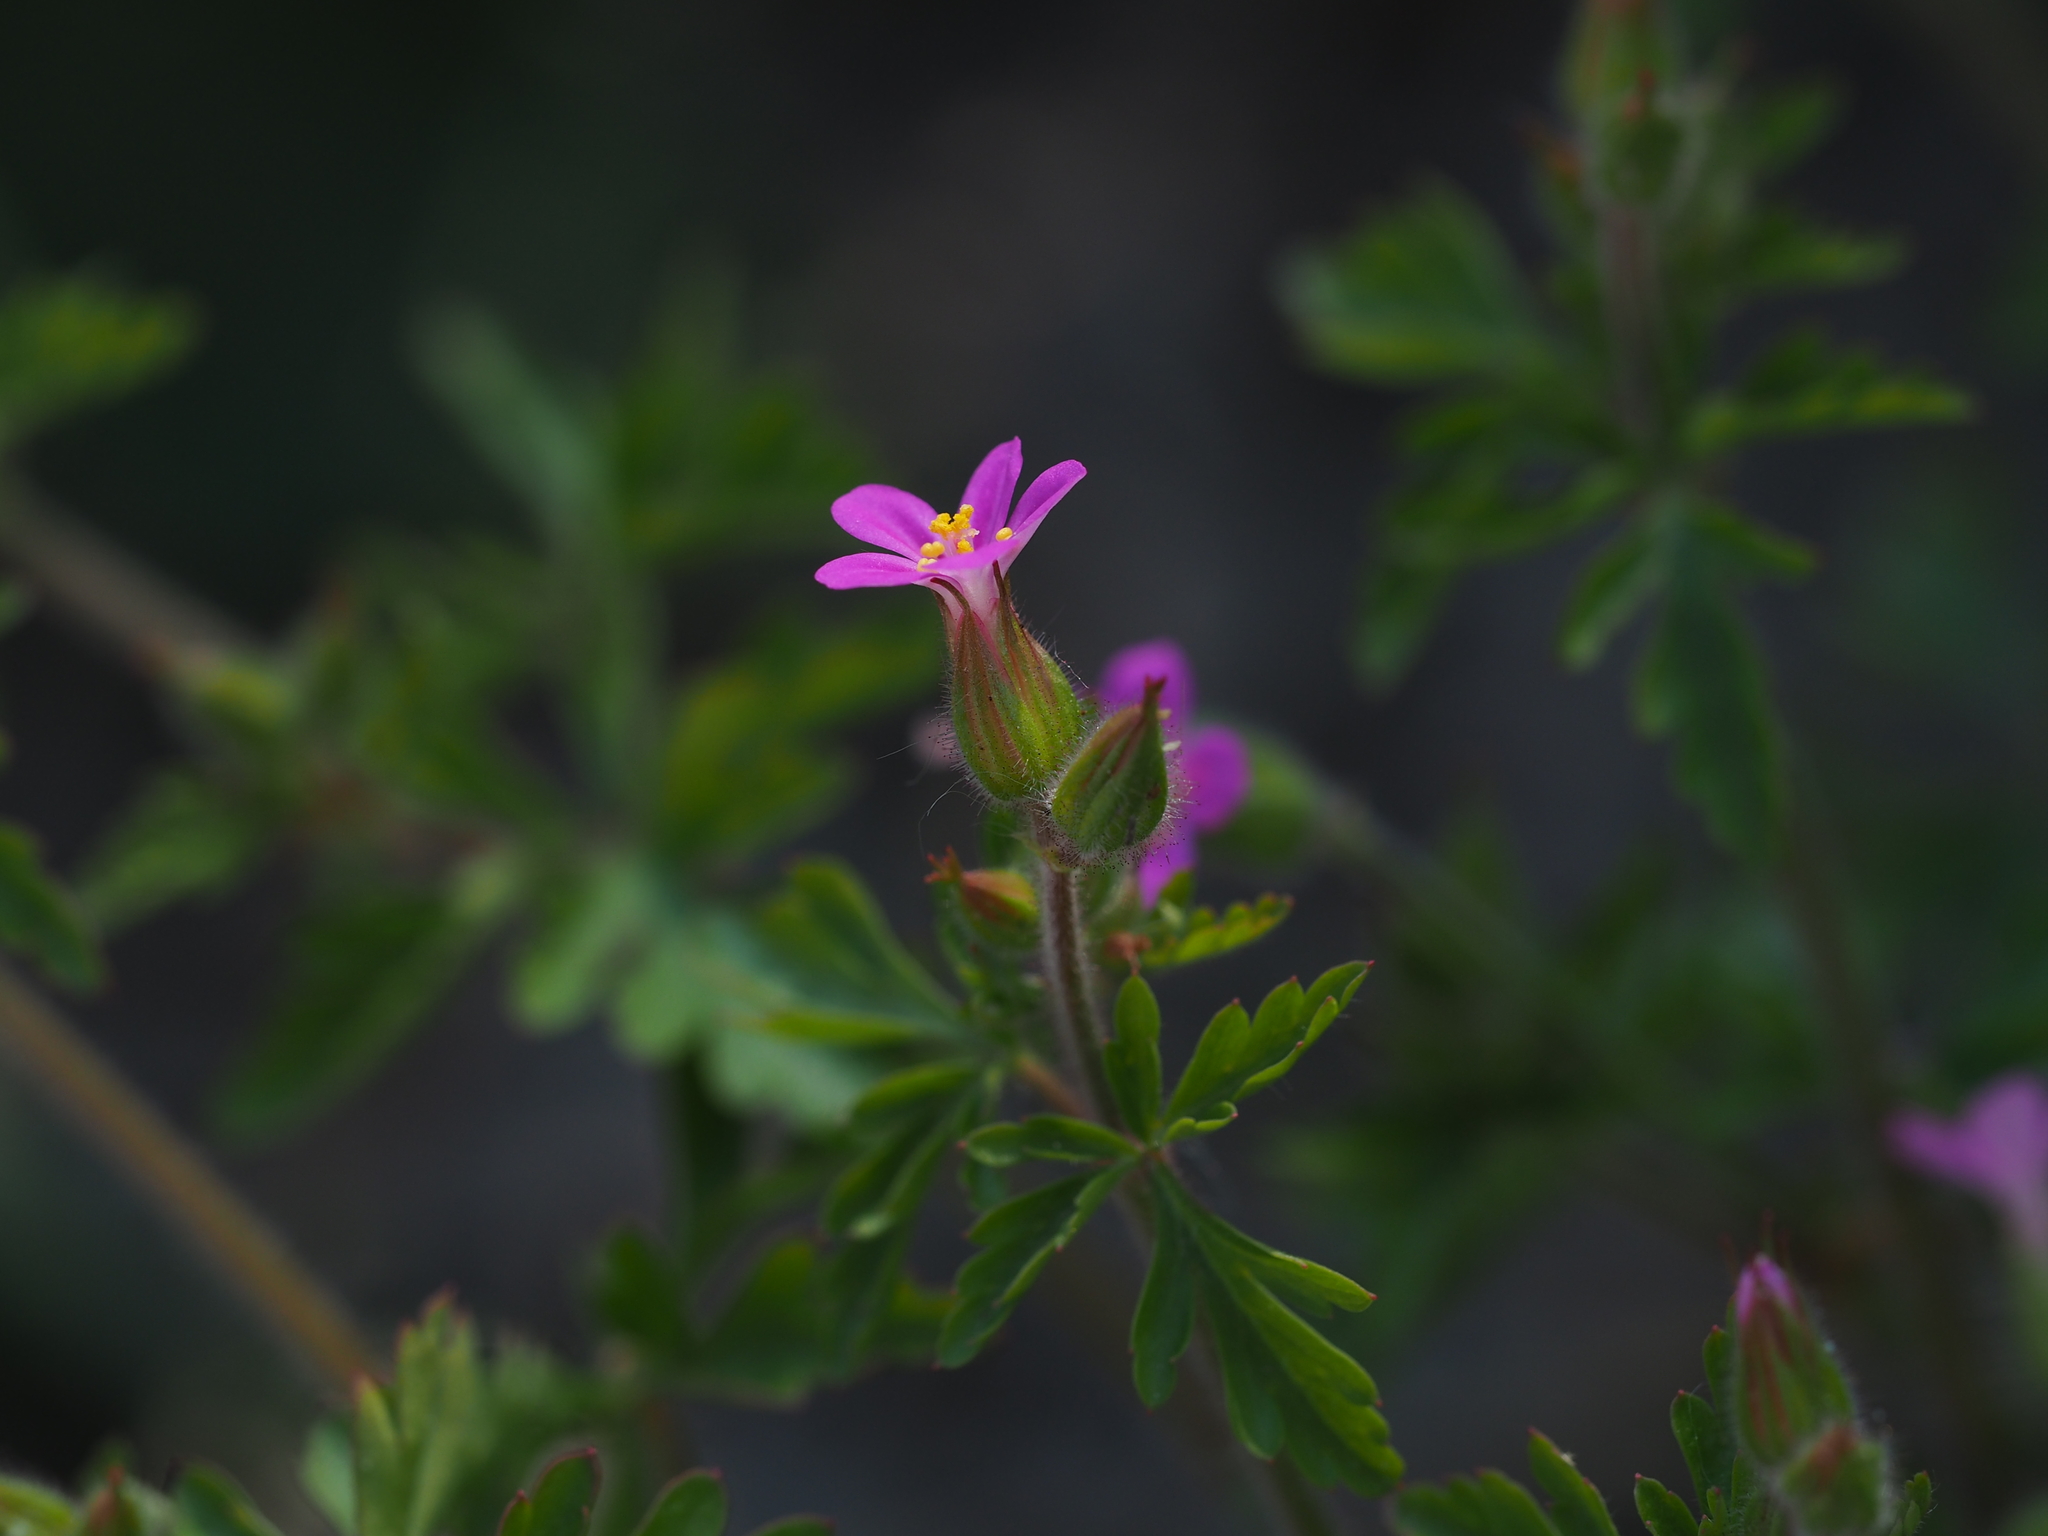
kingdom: Plantae
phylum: Tracheophyta
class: Magnoliopsida
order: Geraniales
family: Geraniaceae
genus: Geranium
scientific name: Geranium purpureum
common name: Little-robin
